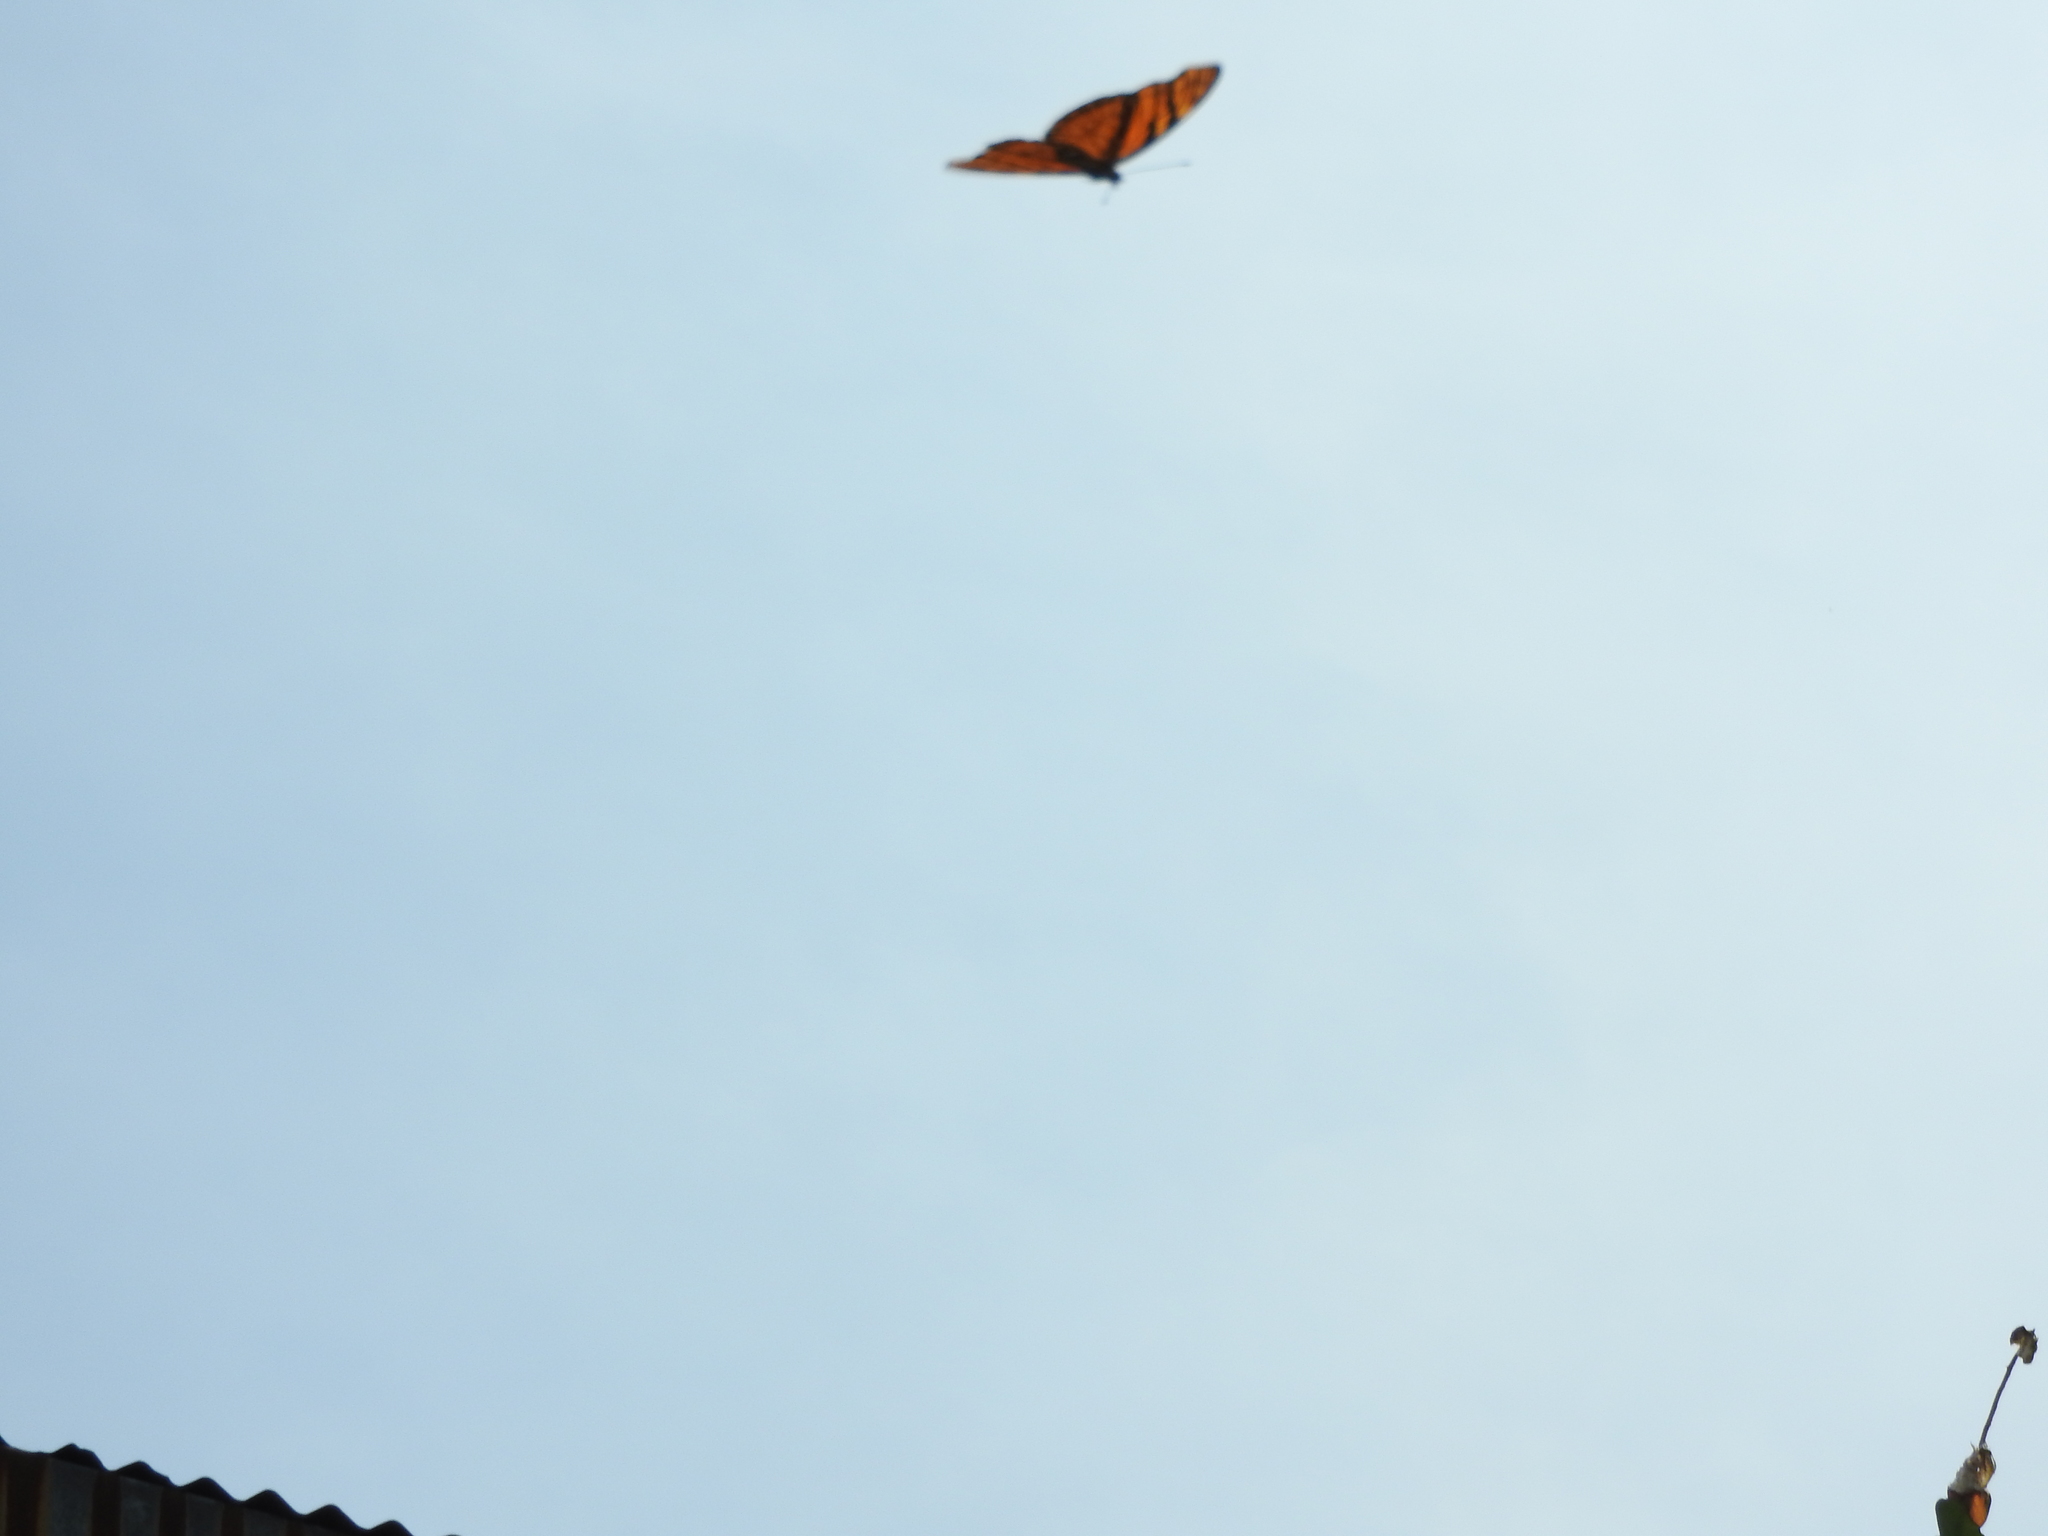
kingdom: Animalia
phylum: Arthropoda
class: Insecta
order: Lepidoptera
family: Nymphalidae
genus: Dione
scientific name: Dione juno
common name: Juno silverspot
